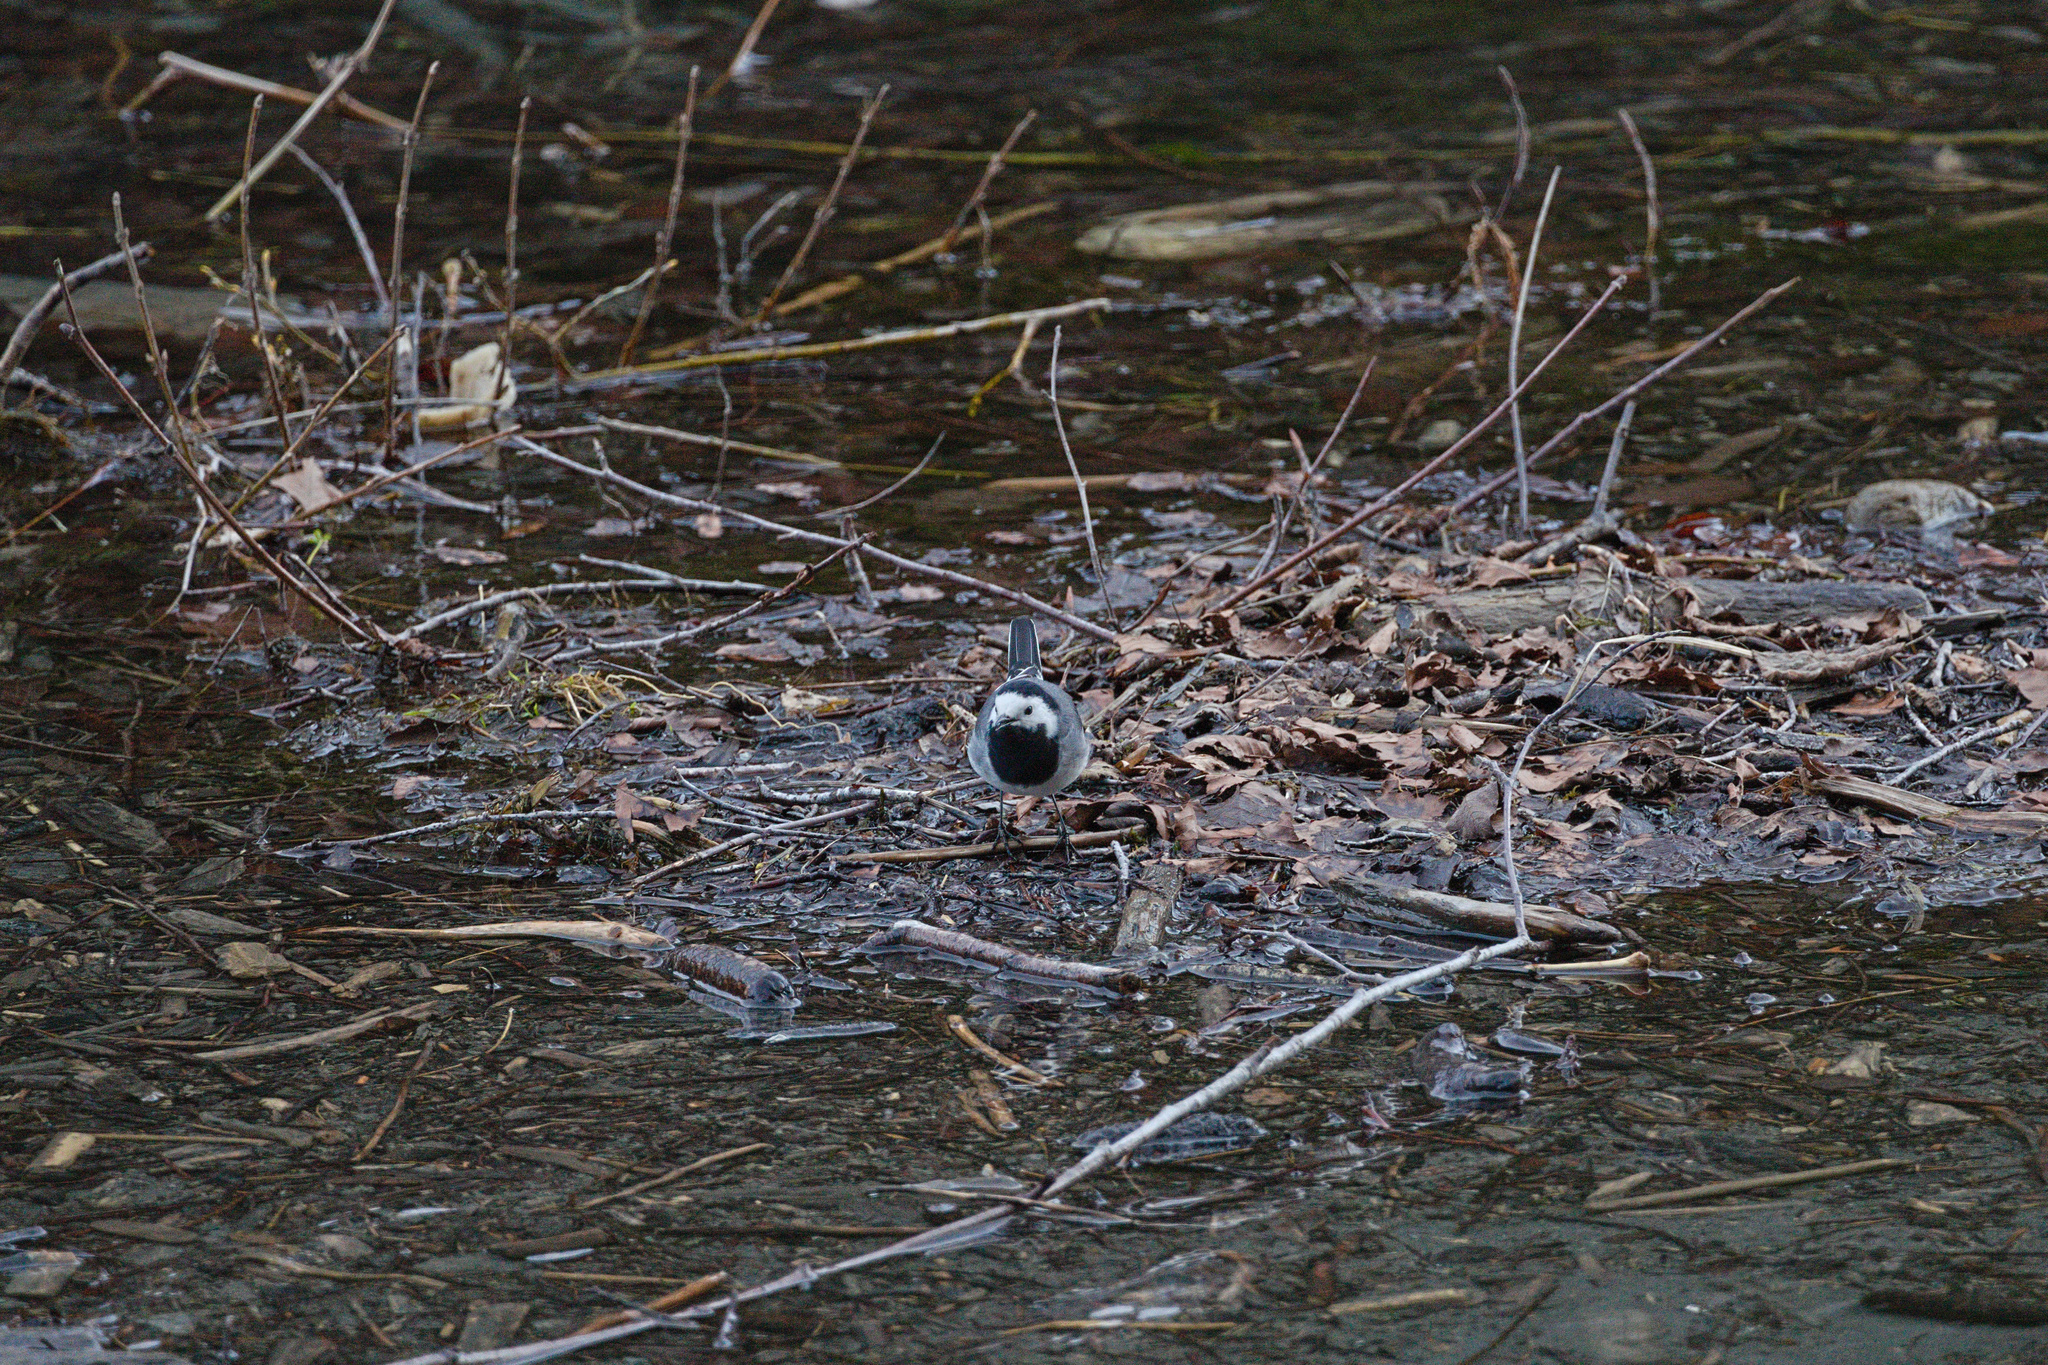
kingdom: Animalia
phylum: Chordata
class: Aves
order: Passeriformes
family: Motacillidae
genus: Motacilla
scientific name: Motacilla alba
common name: White wagtail
